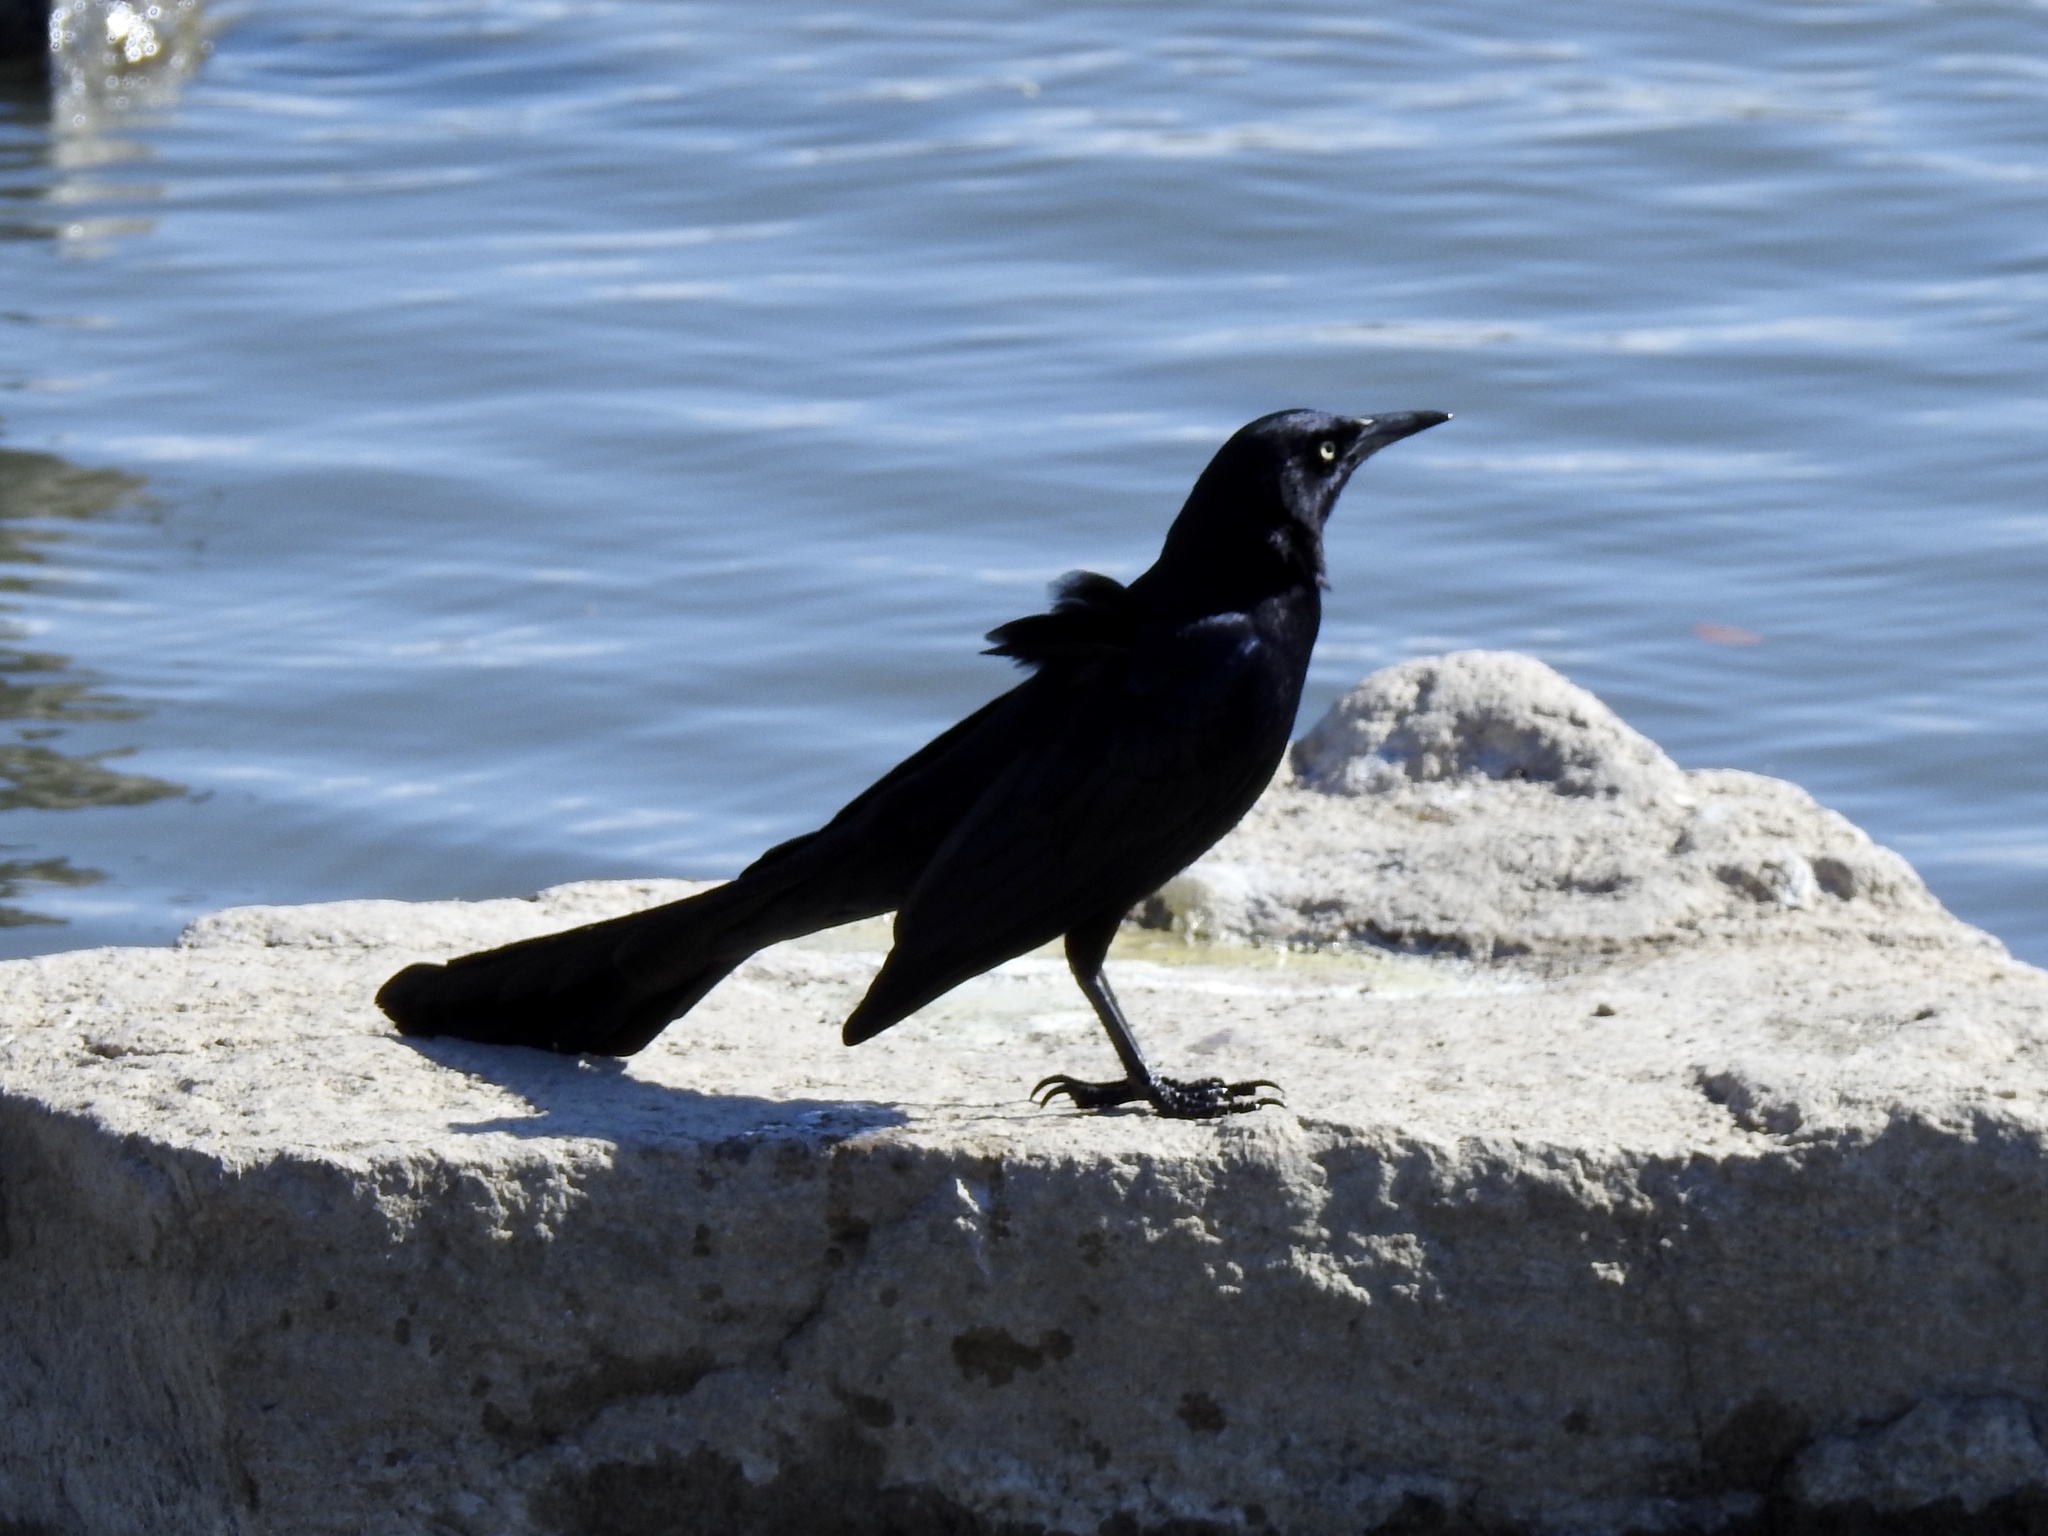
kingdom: Animalia
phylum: Chordata
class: Aves
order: Passeriformes
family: Icteridae
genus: Quiscalus
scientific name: Quiscalus mexicanus
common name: Great-tailed grackle
